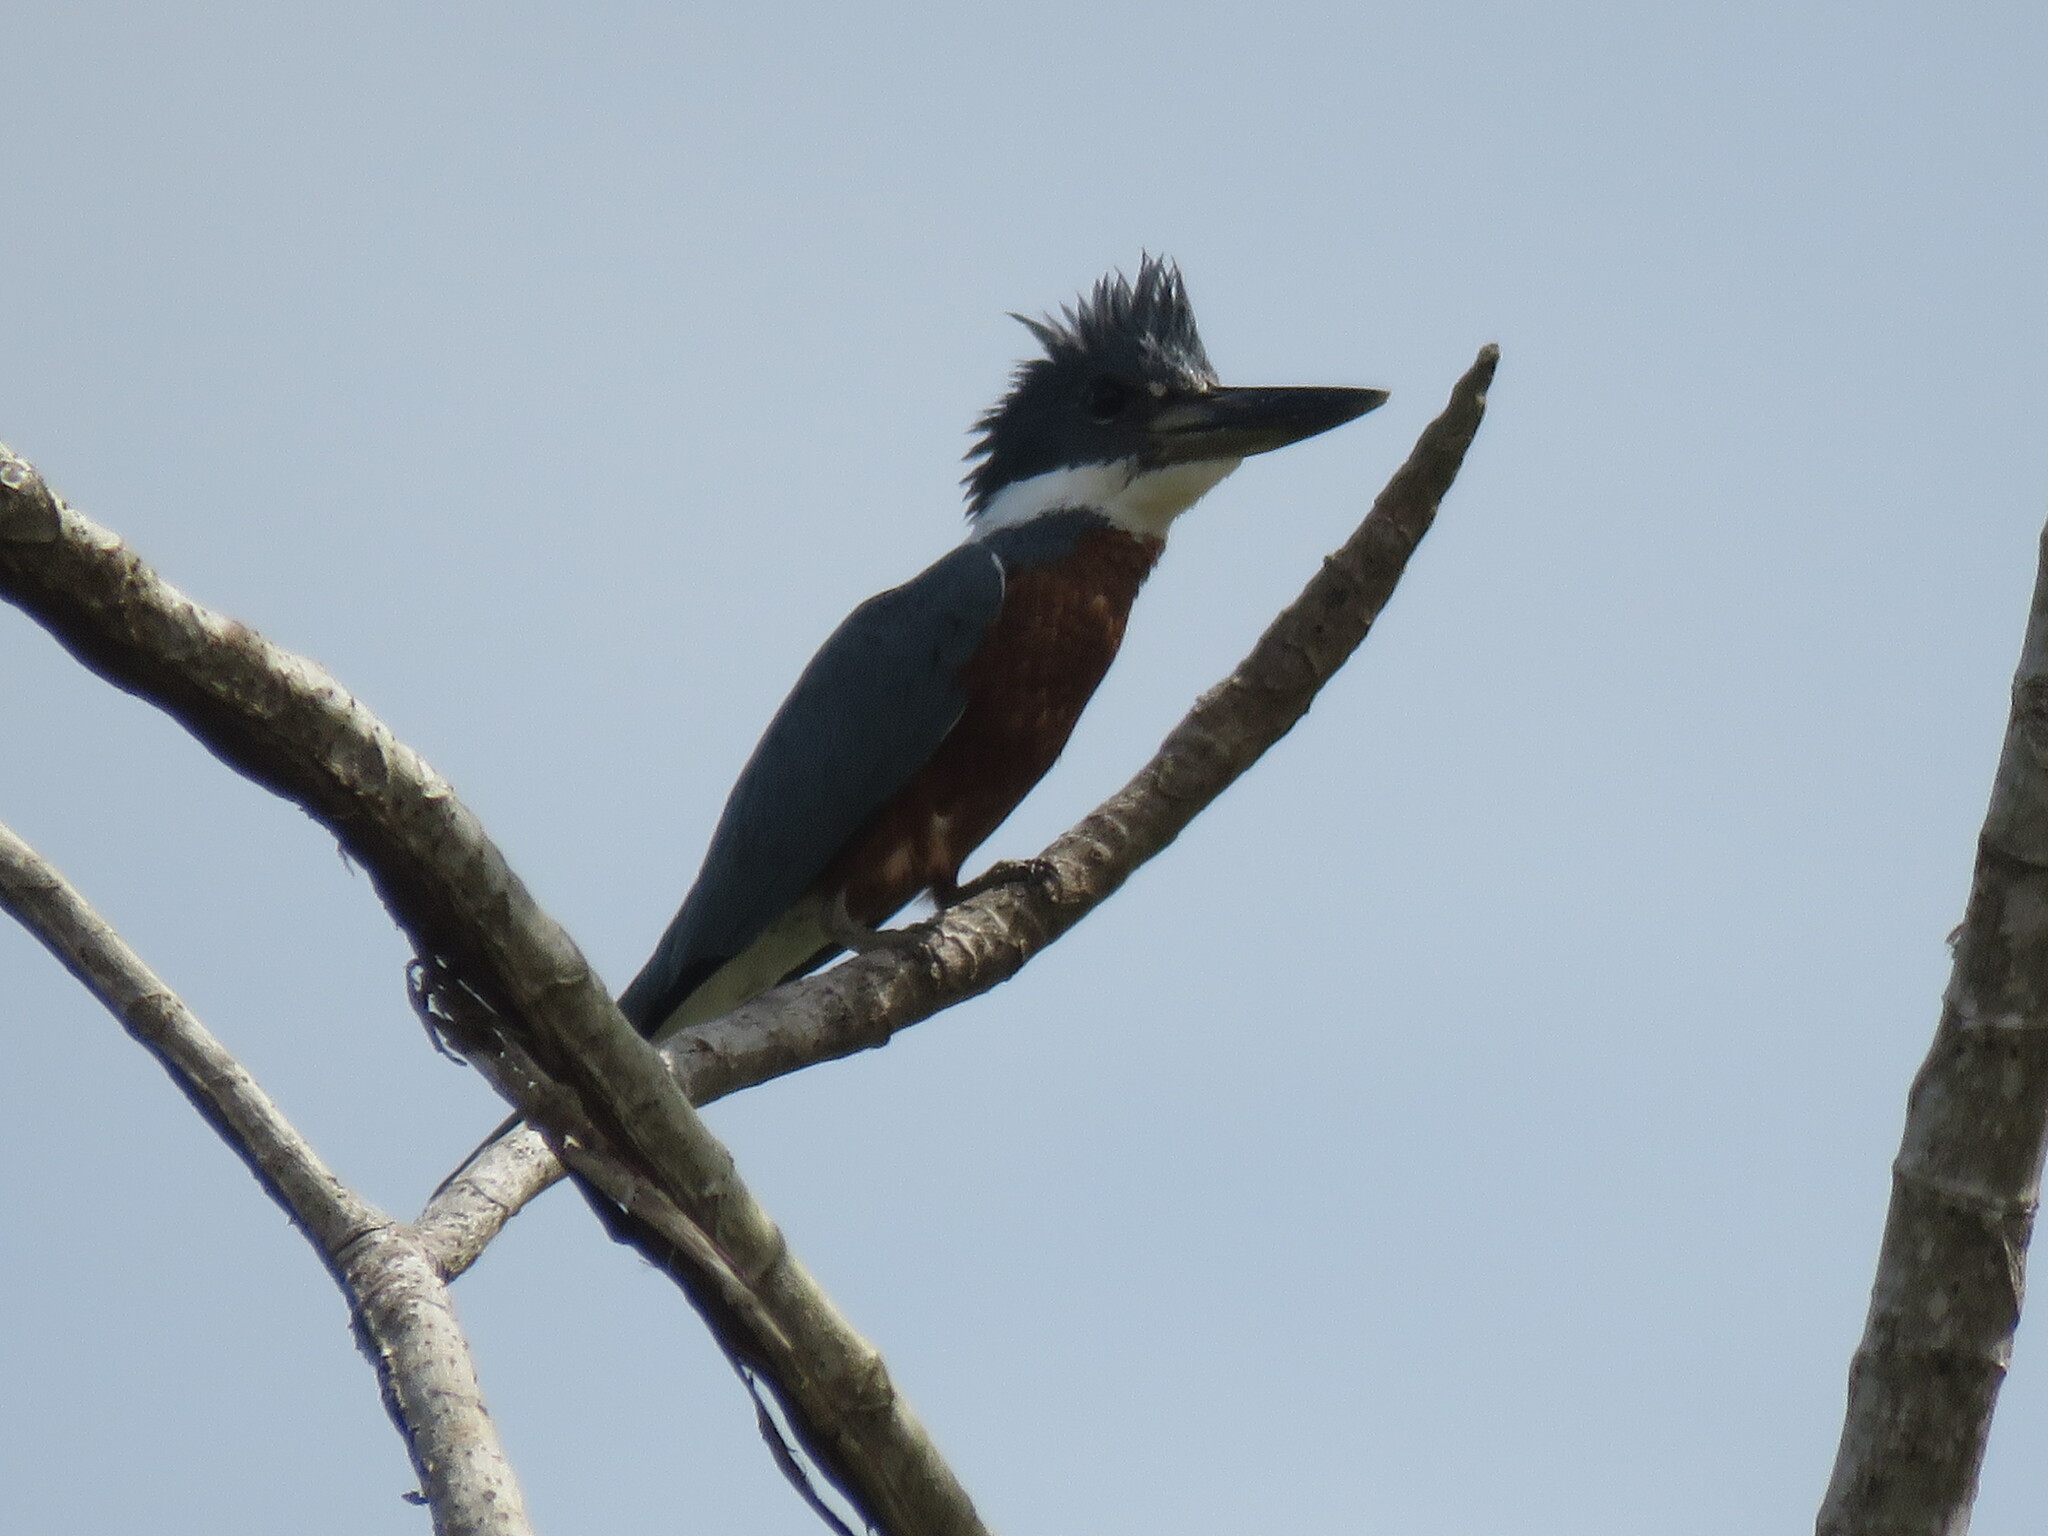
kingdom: Animalia
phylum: Chordata
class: Aves
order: Coraciiformes
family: Alcedinidae
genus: Megaceryle
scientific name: Megaceryle torquata
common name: Ringed kingfisher
